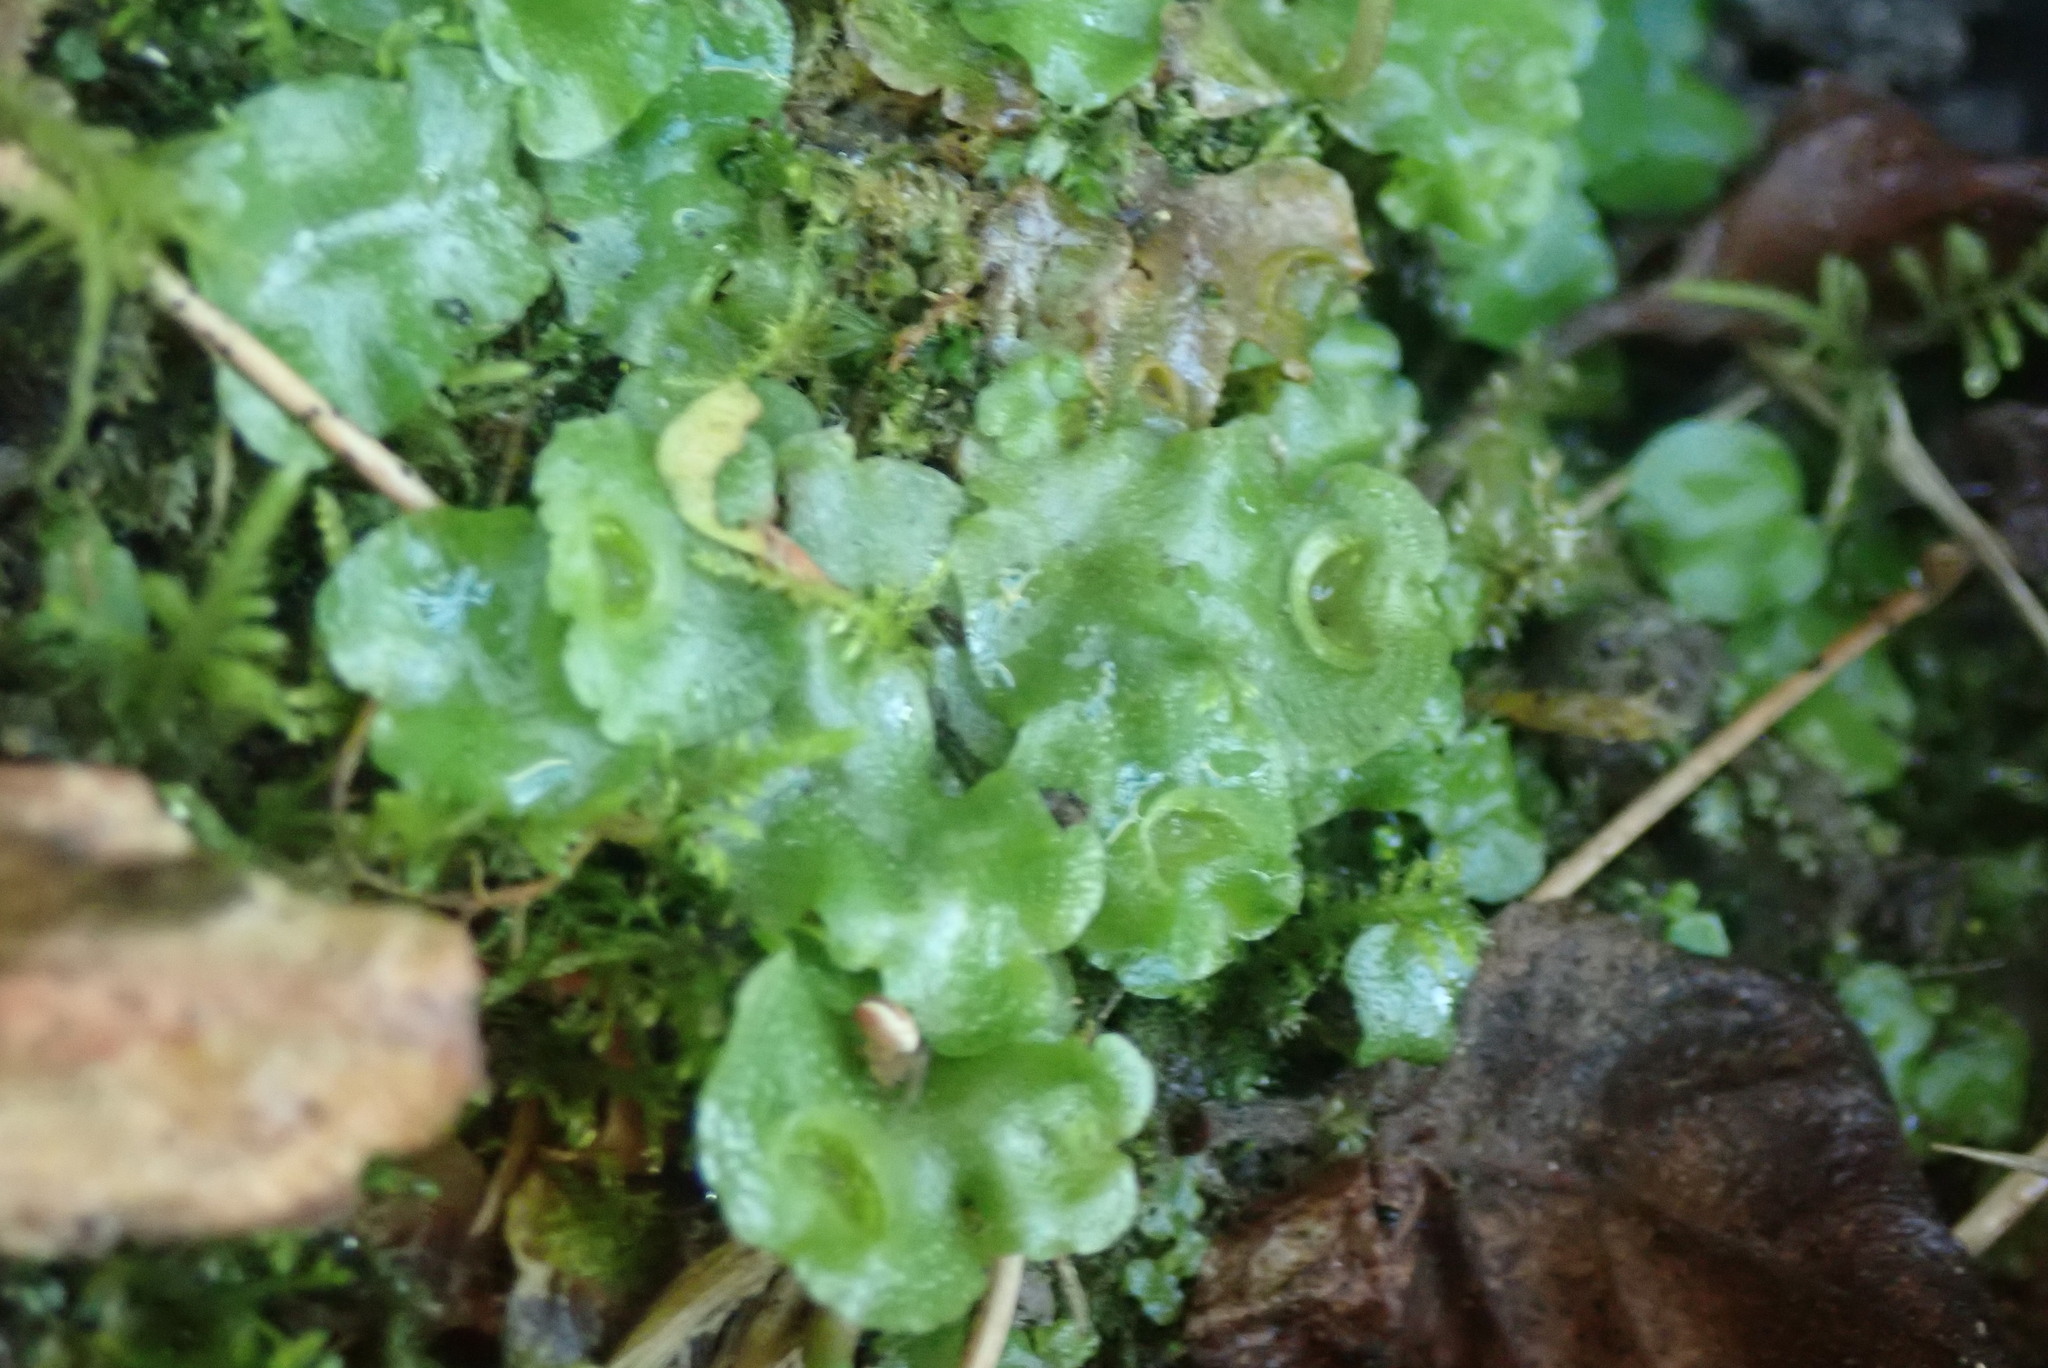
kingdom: Plantae
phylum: Marchantiophyta
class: Marchantiopsida
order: Lunulariales
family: Lunulariaceae
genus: Lunularia
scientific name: Lunularia cruciata
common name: Crescent-cup liverwort
